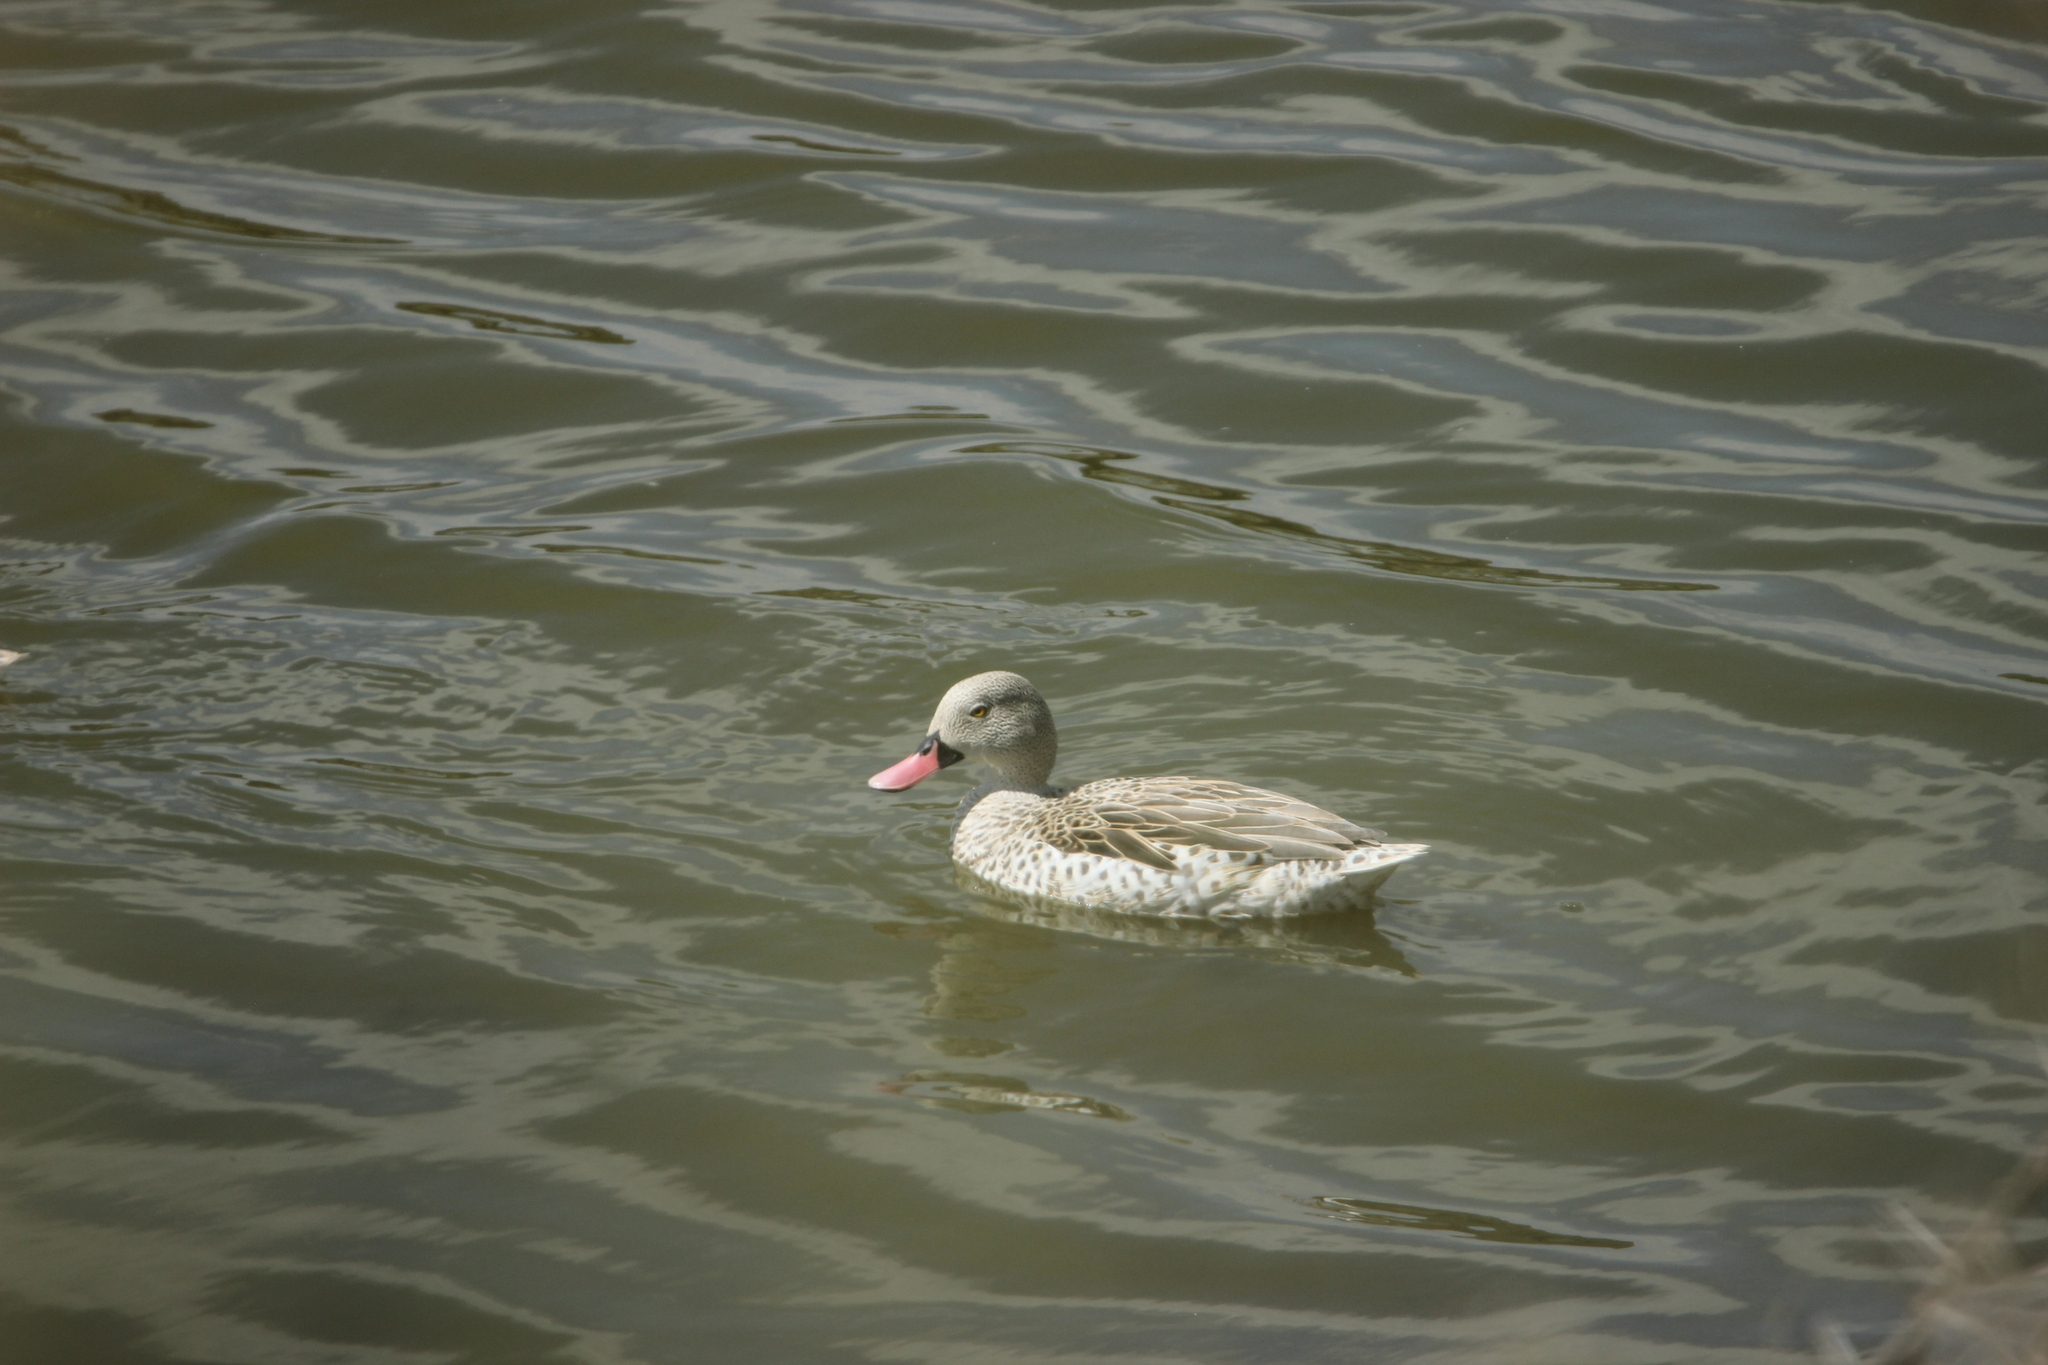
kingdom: Animalia
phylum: Chordata
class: Aves
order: Anseriformes
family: Anatidae
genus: Anas
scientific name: Anas capensis
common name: Cape teal
